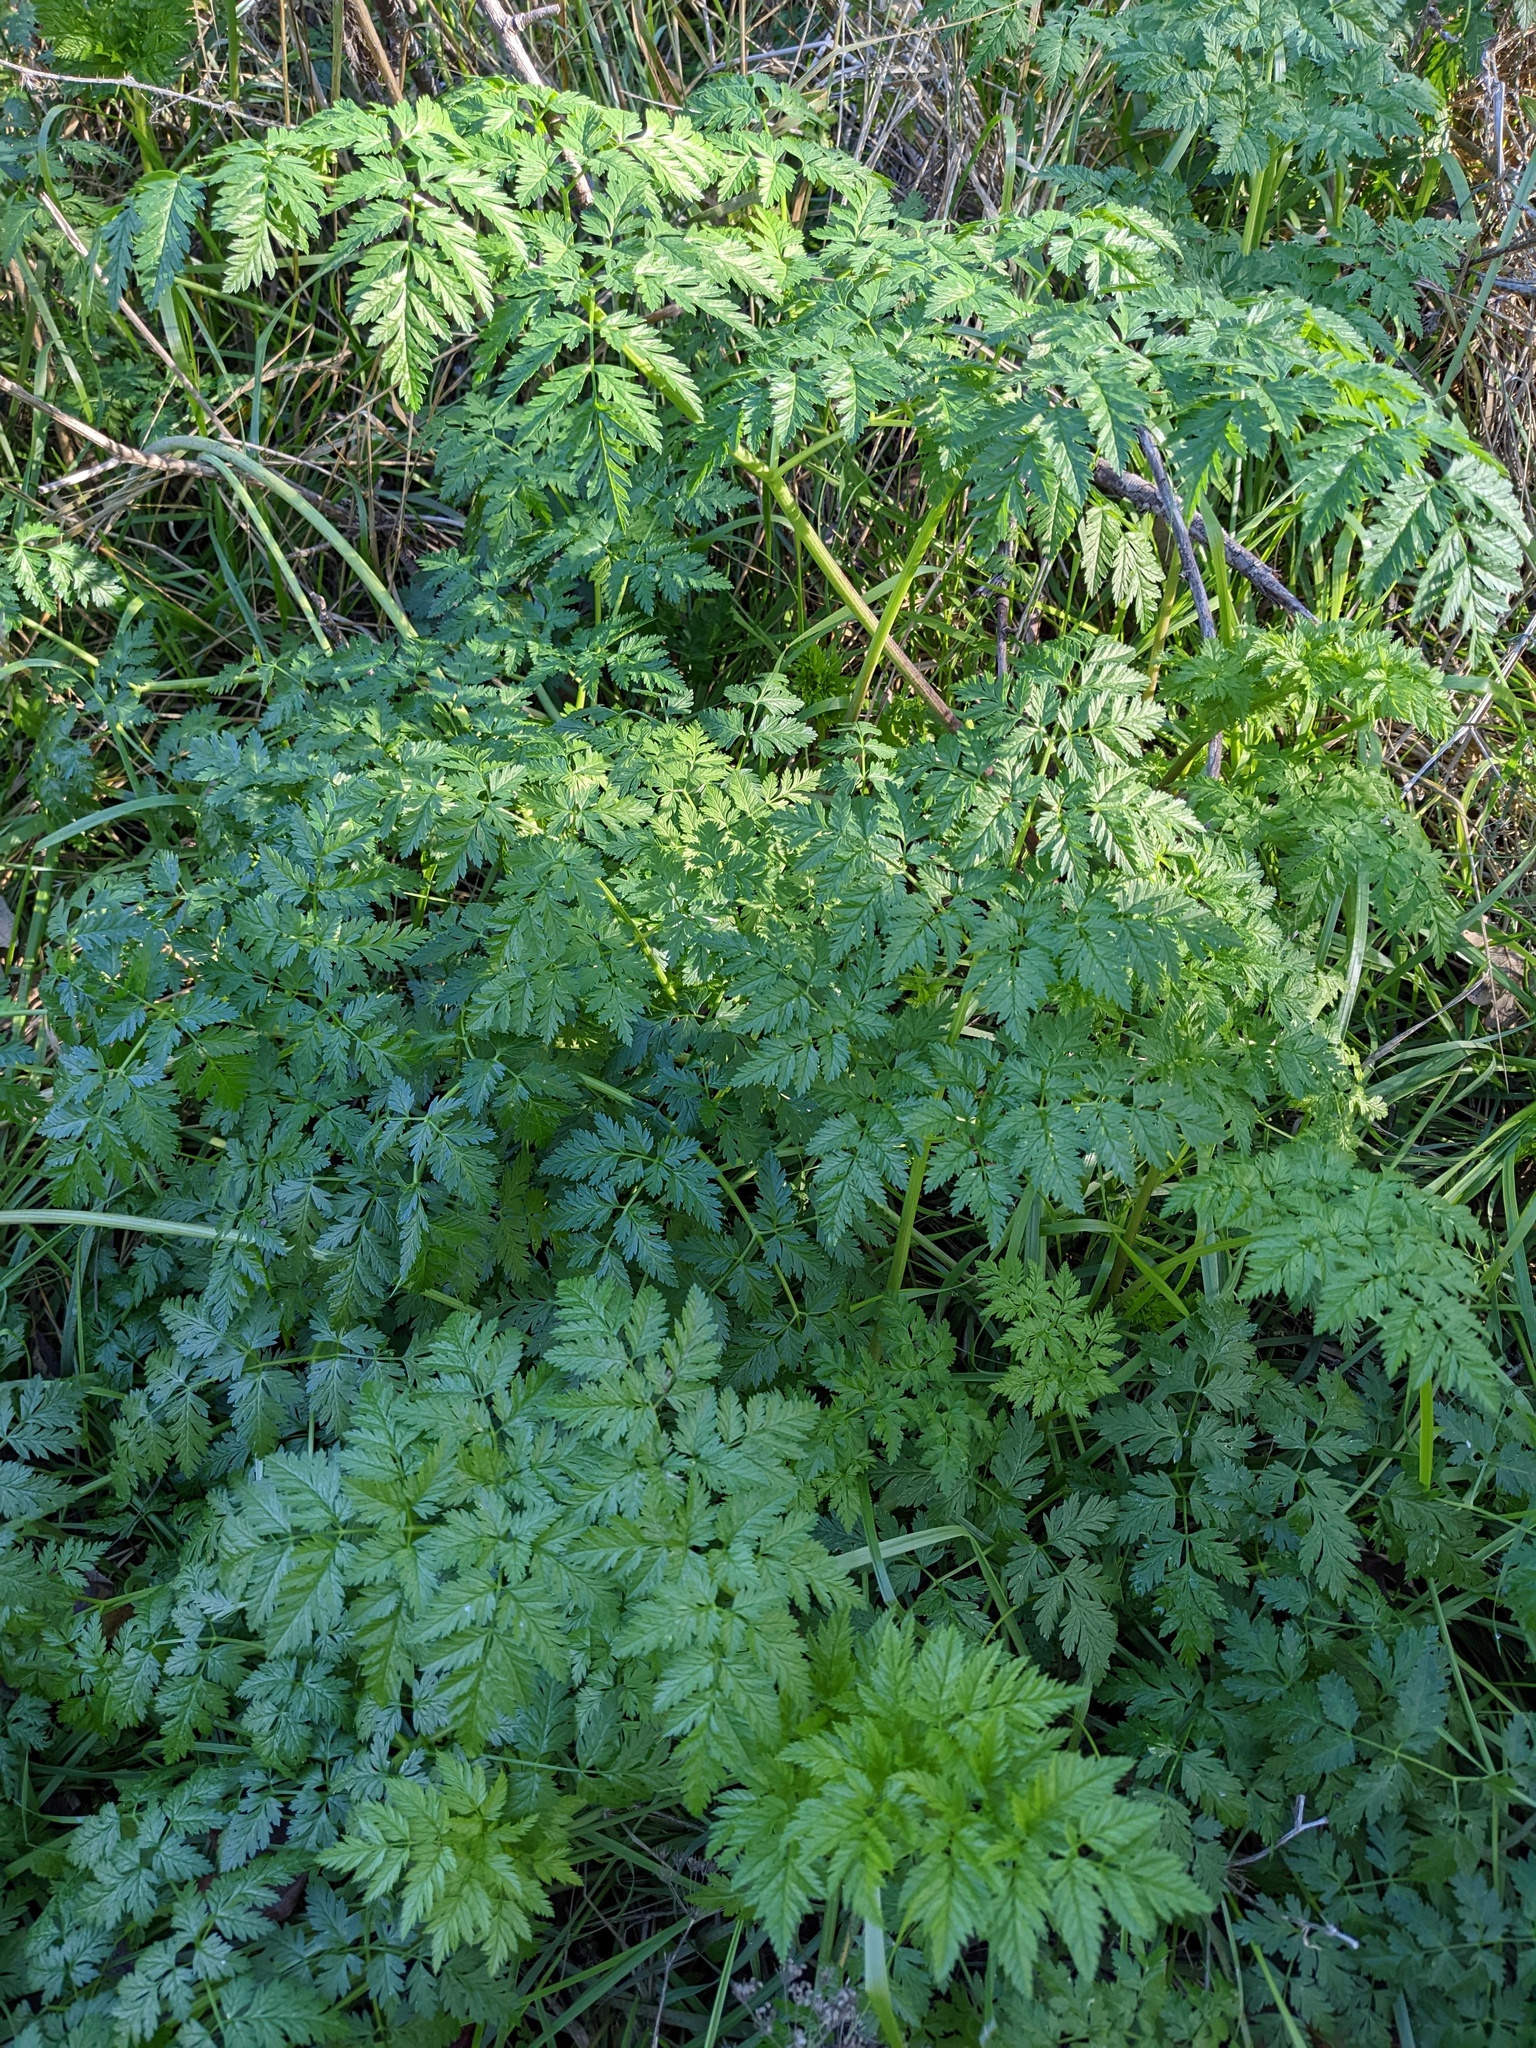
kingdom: Plantae
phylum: Tracheophyta
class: Magnoliopsida
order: Apiales
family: Apiaceae
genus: Conium
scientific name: Conium maculatum
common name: Hemlock
